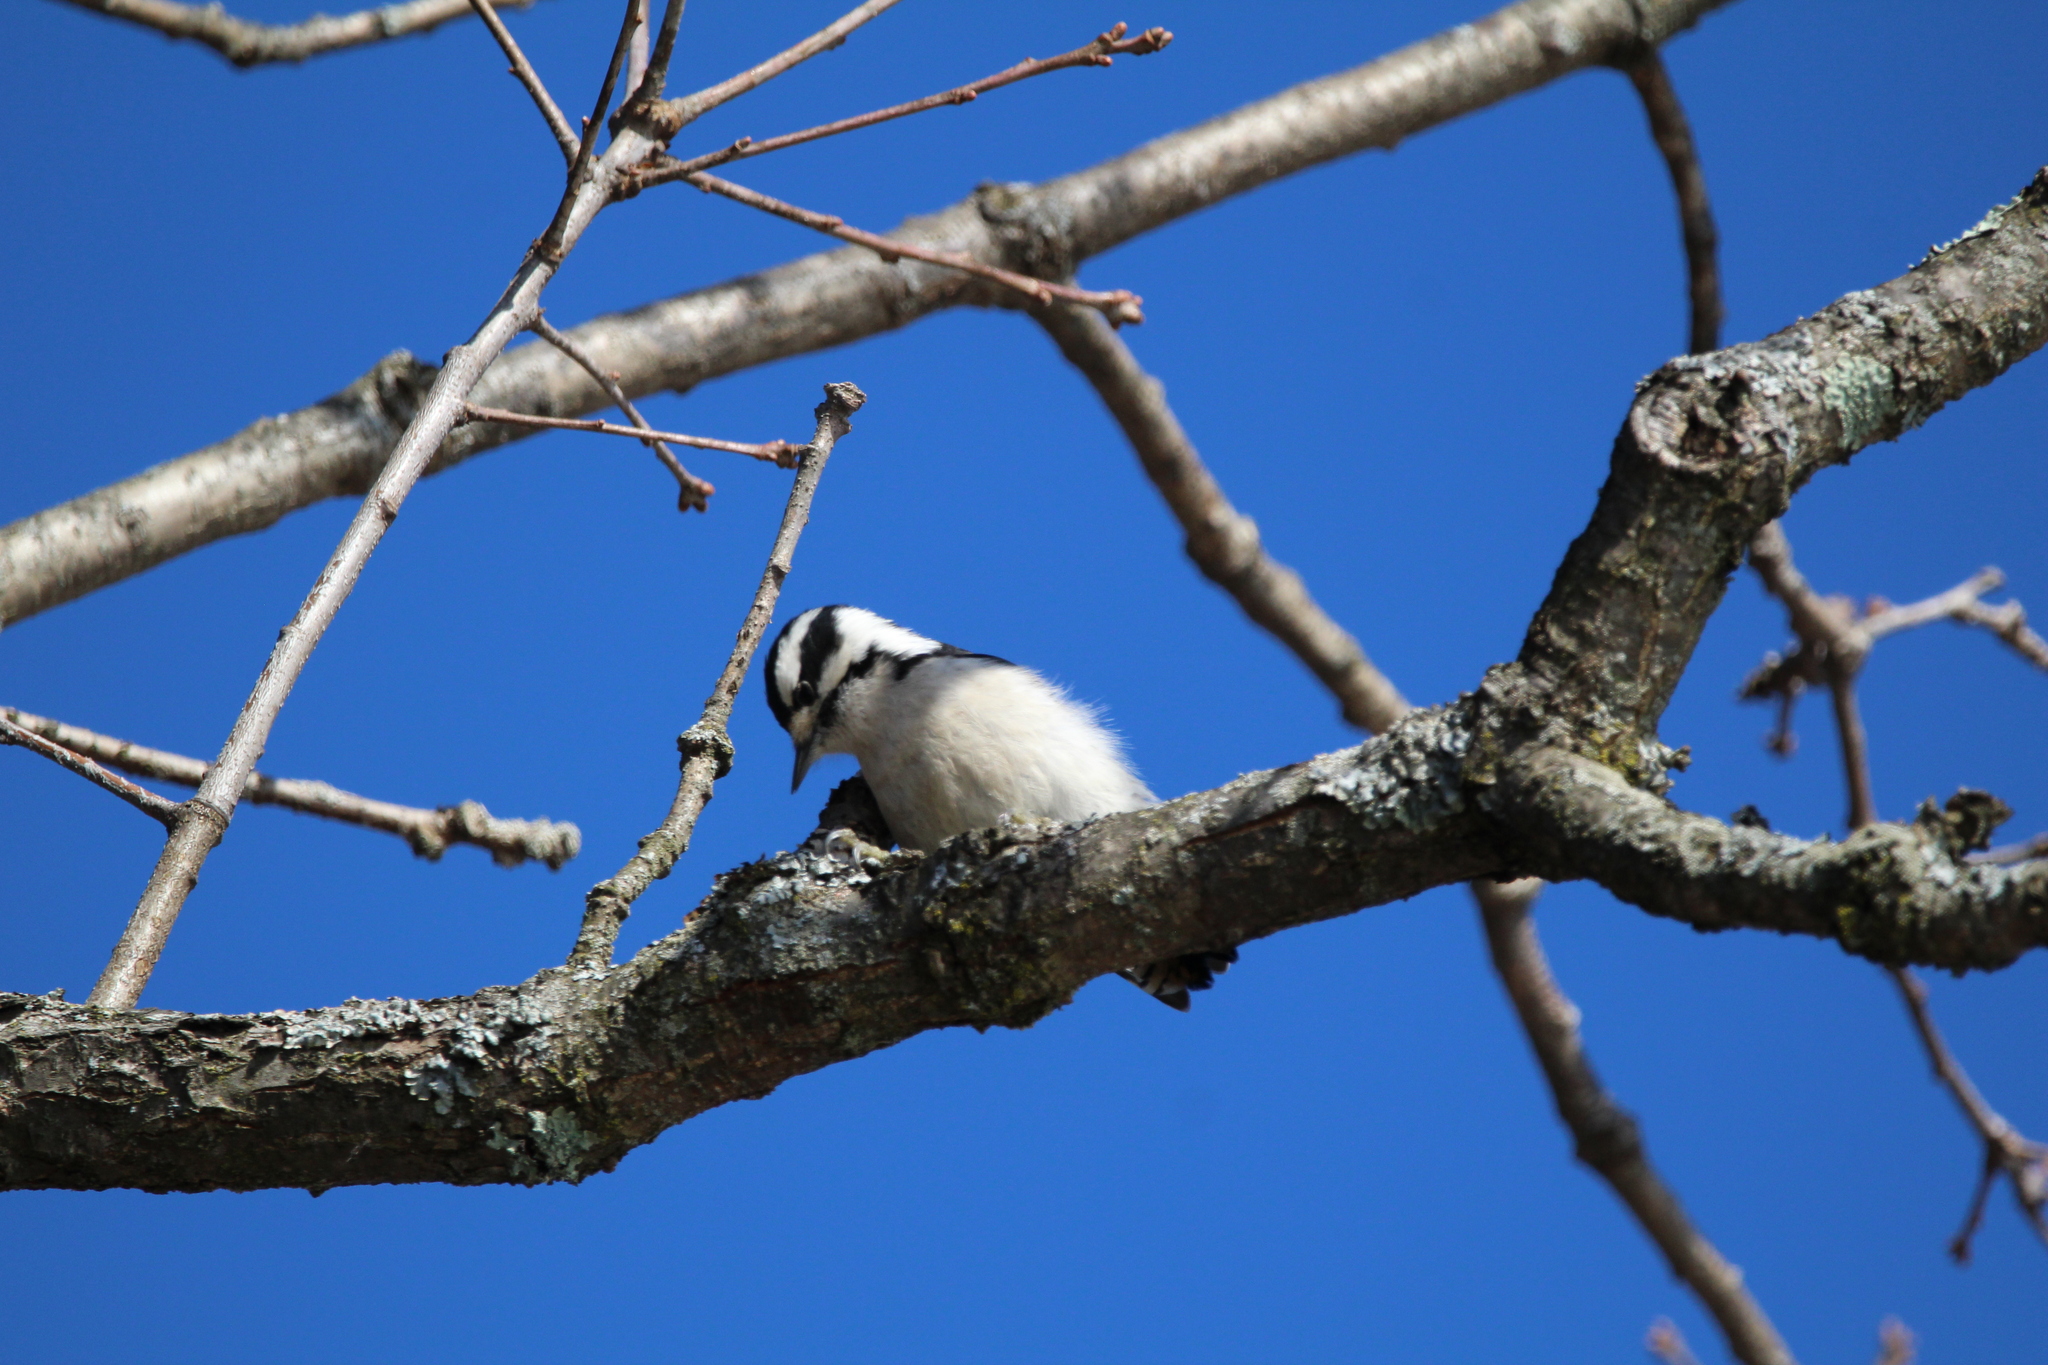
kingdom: Animalia
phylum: Chordata
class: Aves
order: Piciformes
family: Picidae
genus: Dryobates
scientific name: Dryobates pubescens
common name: Downy woodpecker
